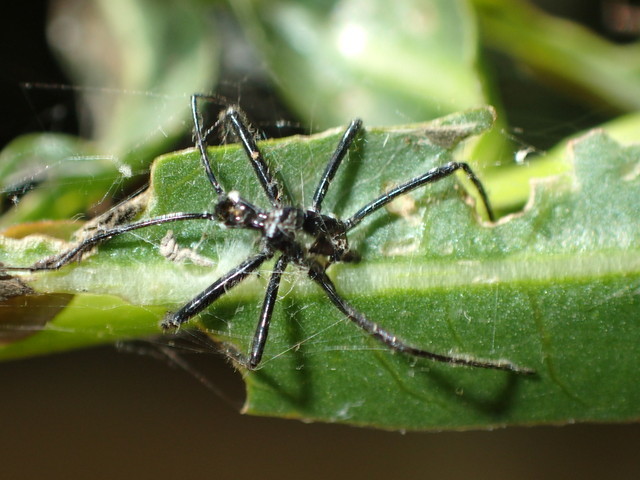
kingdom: Animalia
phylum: Arthropoda
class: Insecta
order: Hemiptera
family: Reduviidae
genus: Arilus
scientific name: Arilus cristatus
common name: North american wheel bug
